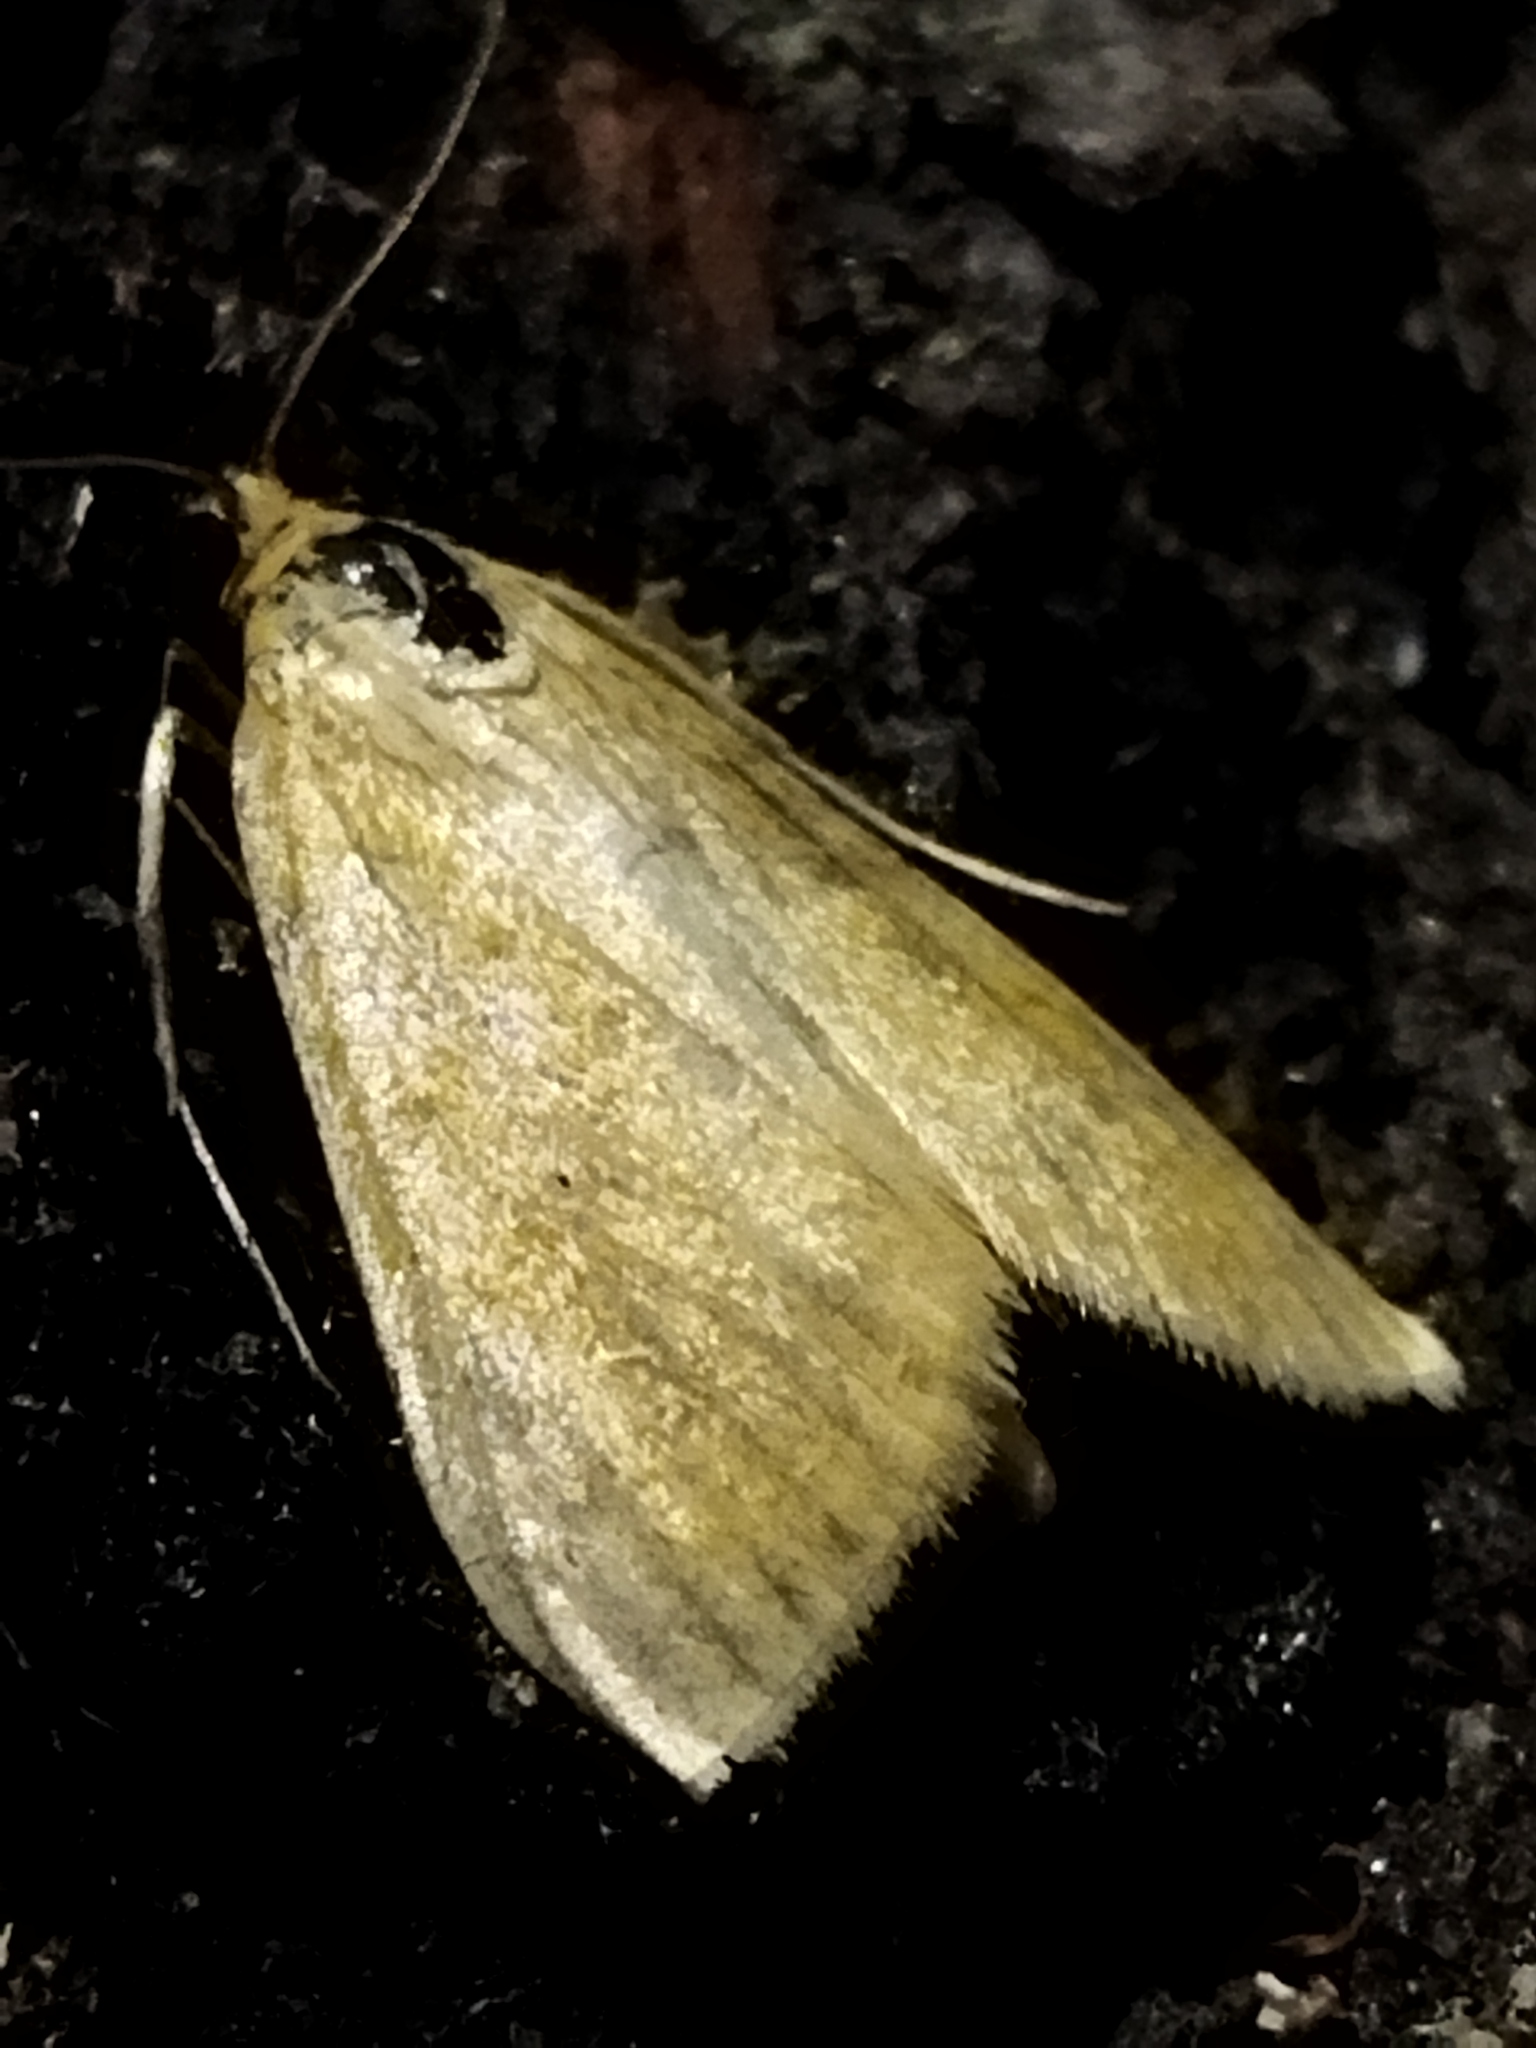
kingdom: Animalia
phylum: Arthropoda
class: Insecta
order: Lepidoptera
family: Crambidae
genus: Sitochroa
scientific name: Sitochroa verticalis
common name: Lesser pearl
